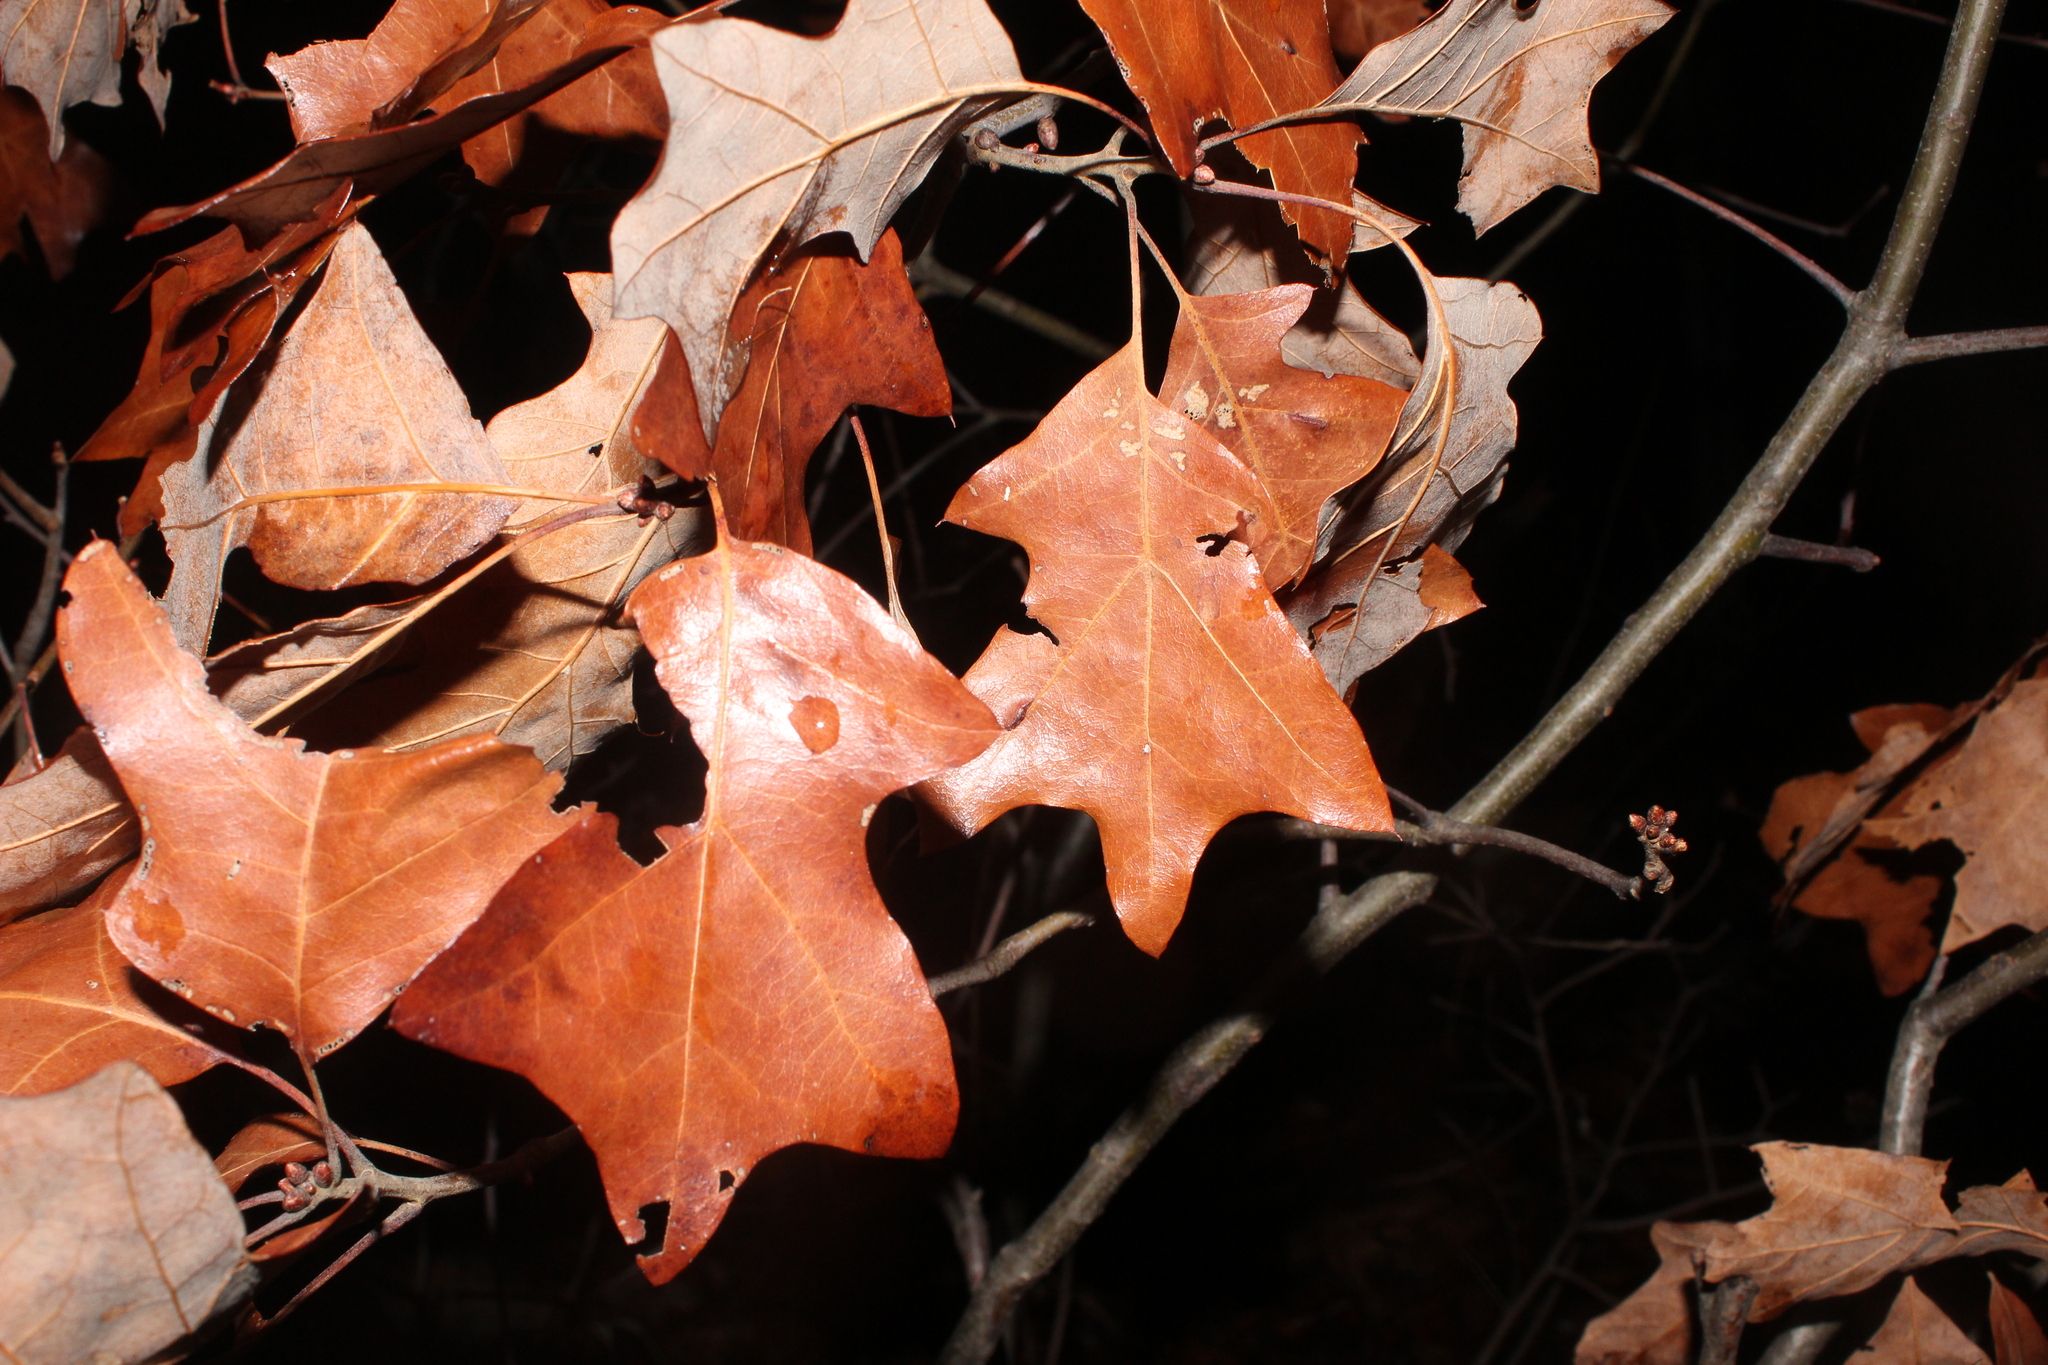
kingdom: Plantae
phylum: Tracheophyta
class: Magnoliopsida
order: Fagales
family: Fagaceae
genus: Quercus
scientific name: Quercus ilicifolia
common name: Bear oak
